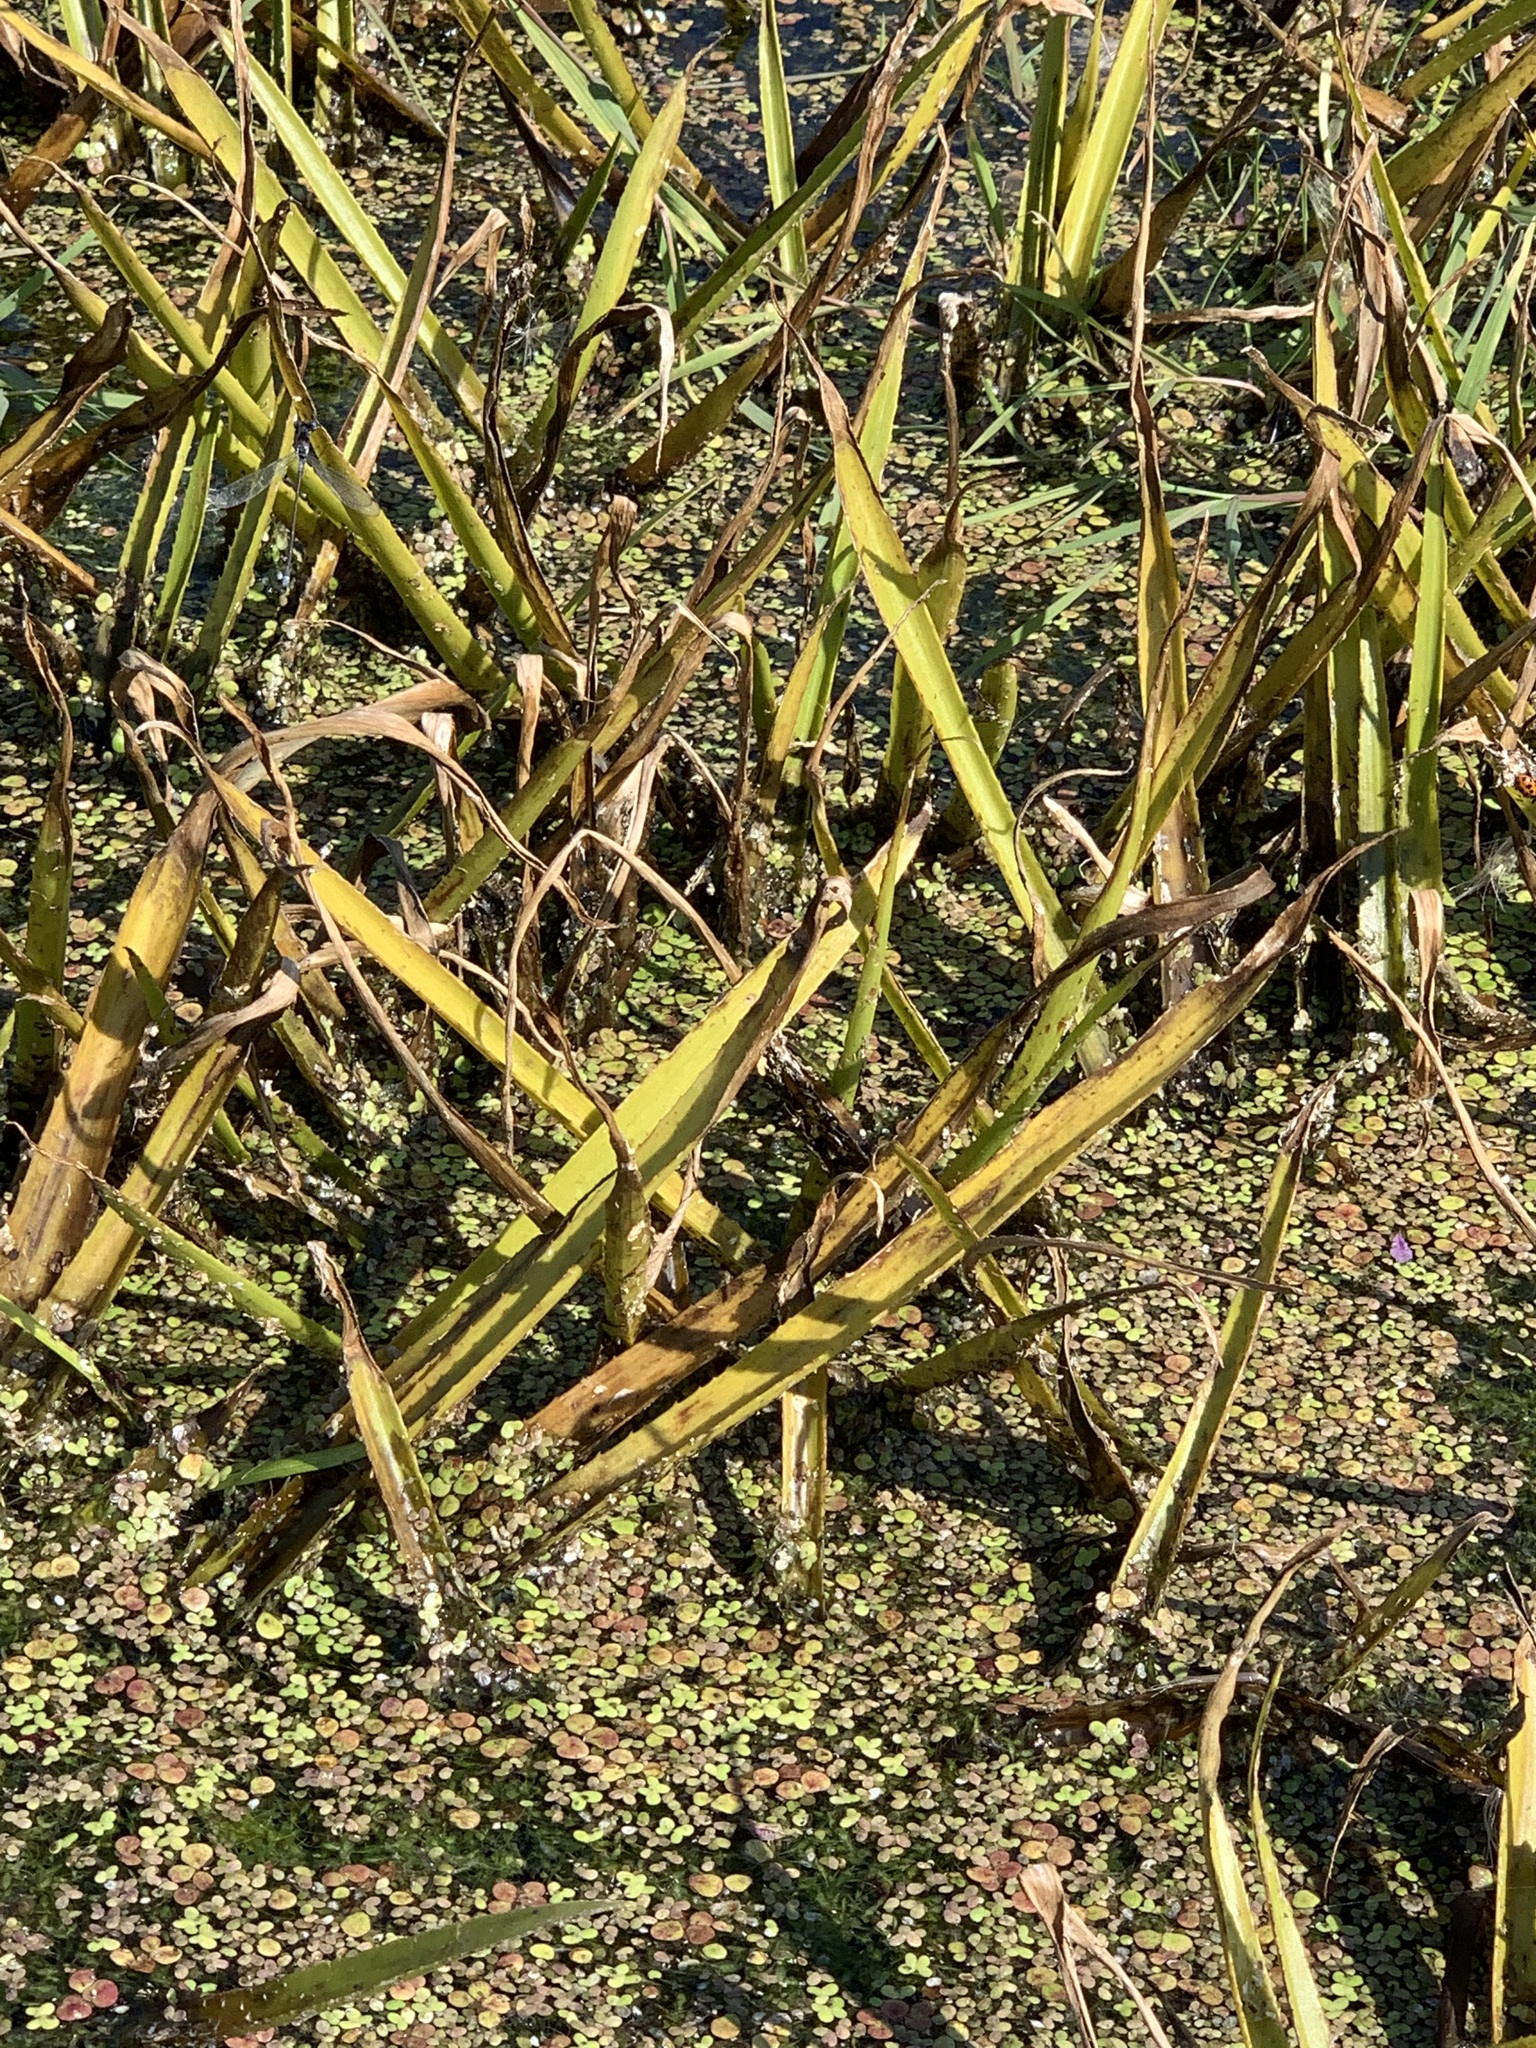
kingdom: Plantae
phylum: Tracheophyta
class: Liliopsida
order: Alismatales
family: Hydrocharitaceae
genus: Stratiotes
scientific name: Stratiotes aloides
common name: Water-soldier
